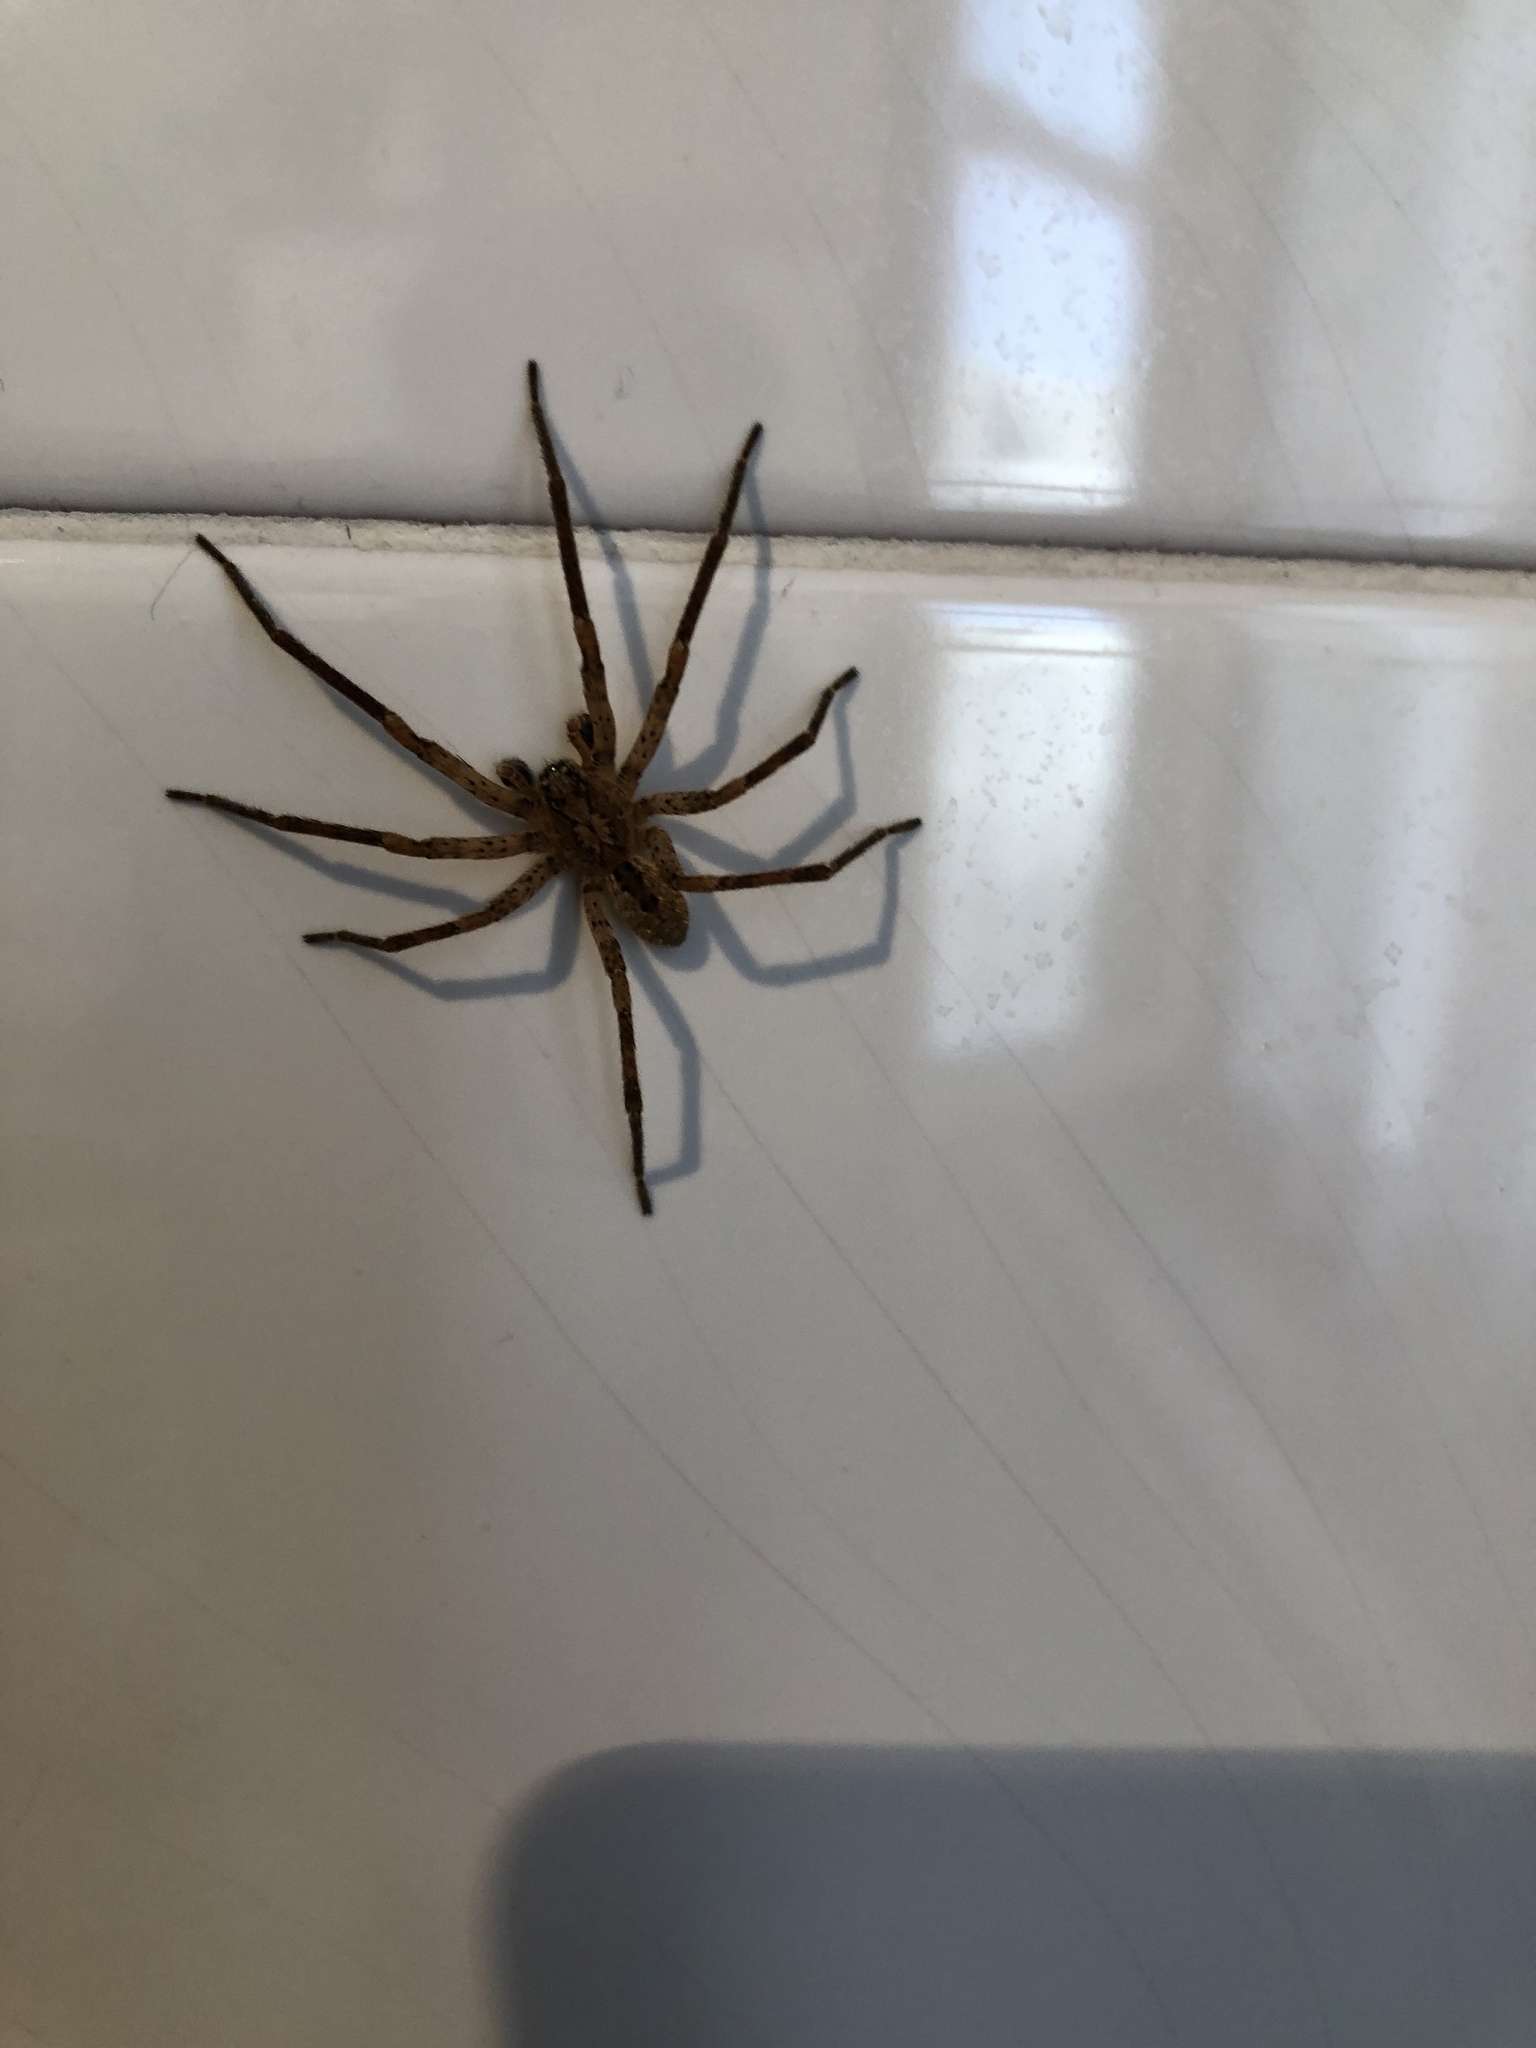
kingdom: Animalia
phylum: Arthropoda
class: Arachnida
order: Araneae
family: Zoropsidae
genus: Zoropsis
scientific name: Zoropsis spinimana
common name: Zoropsid spider
